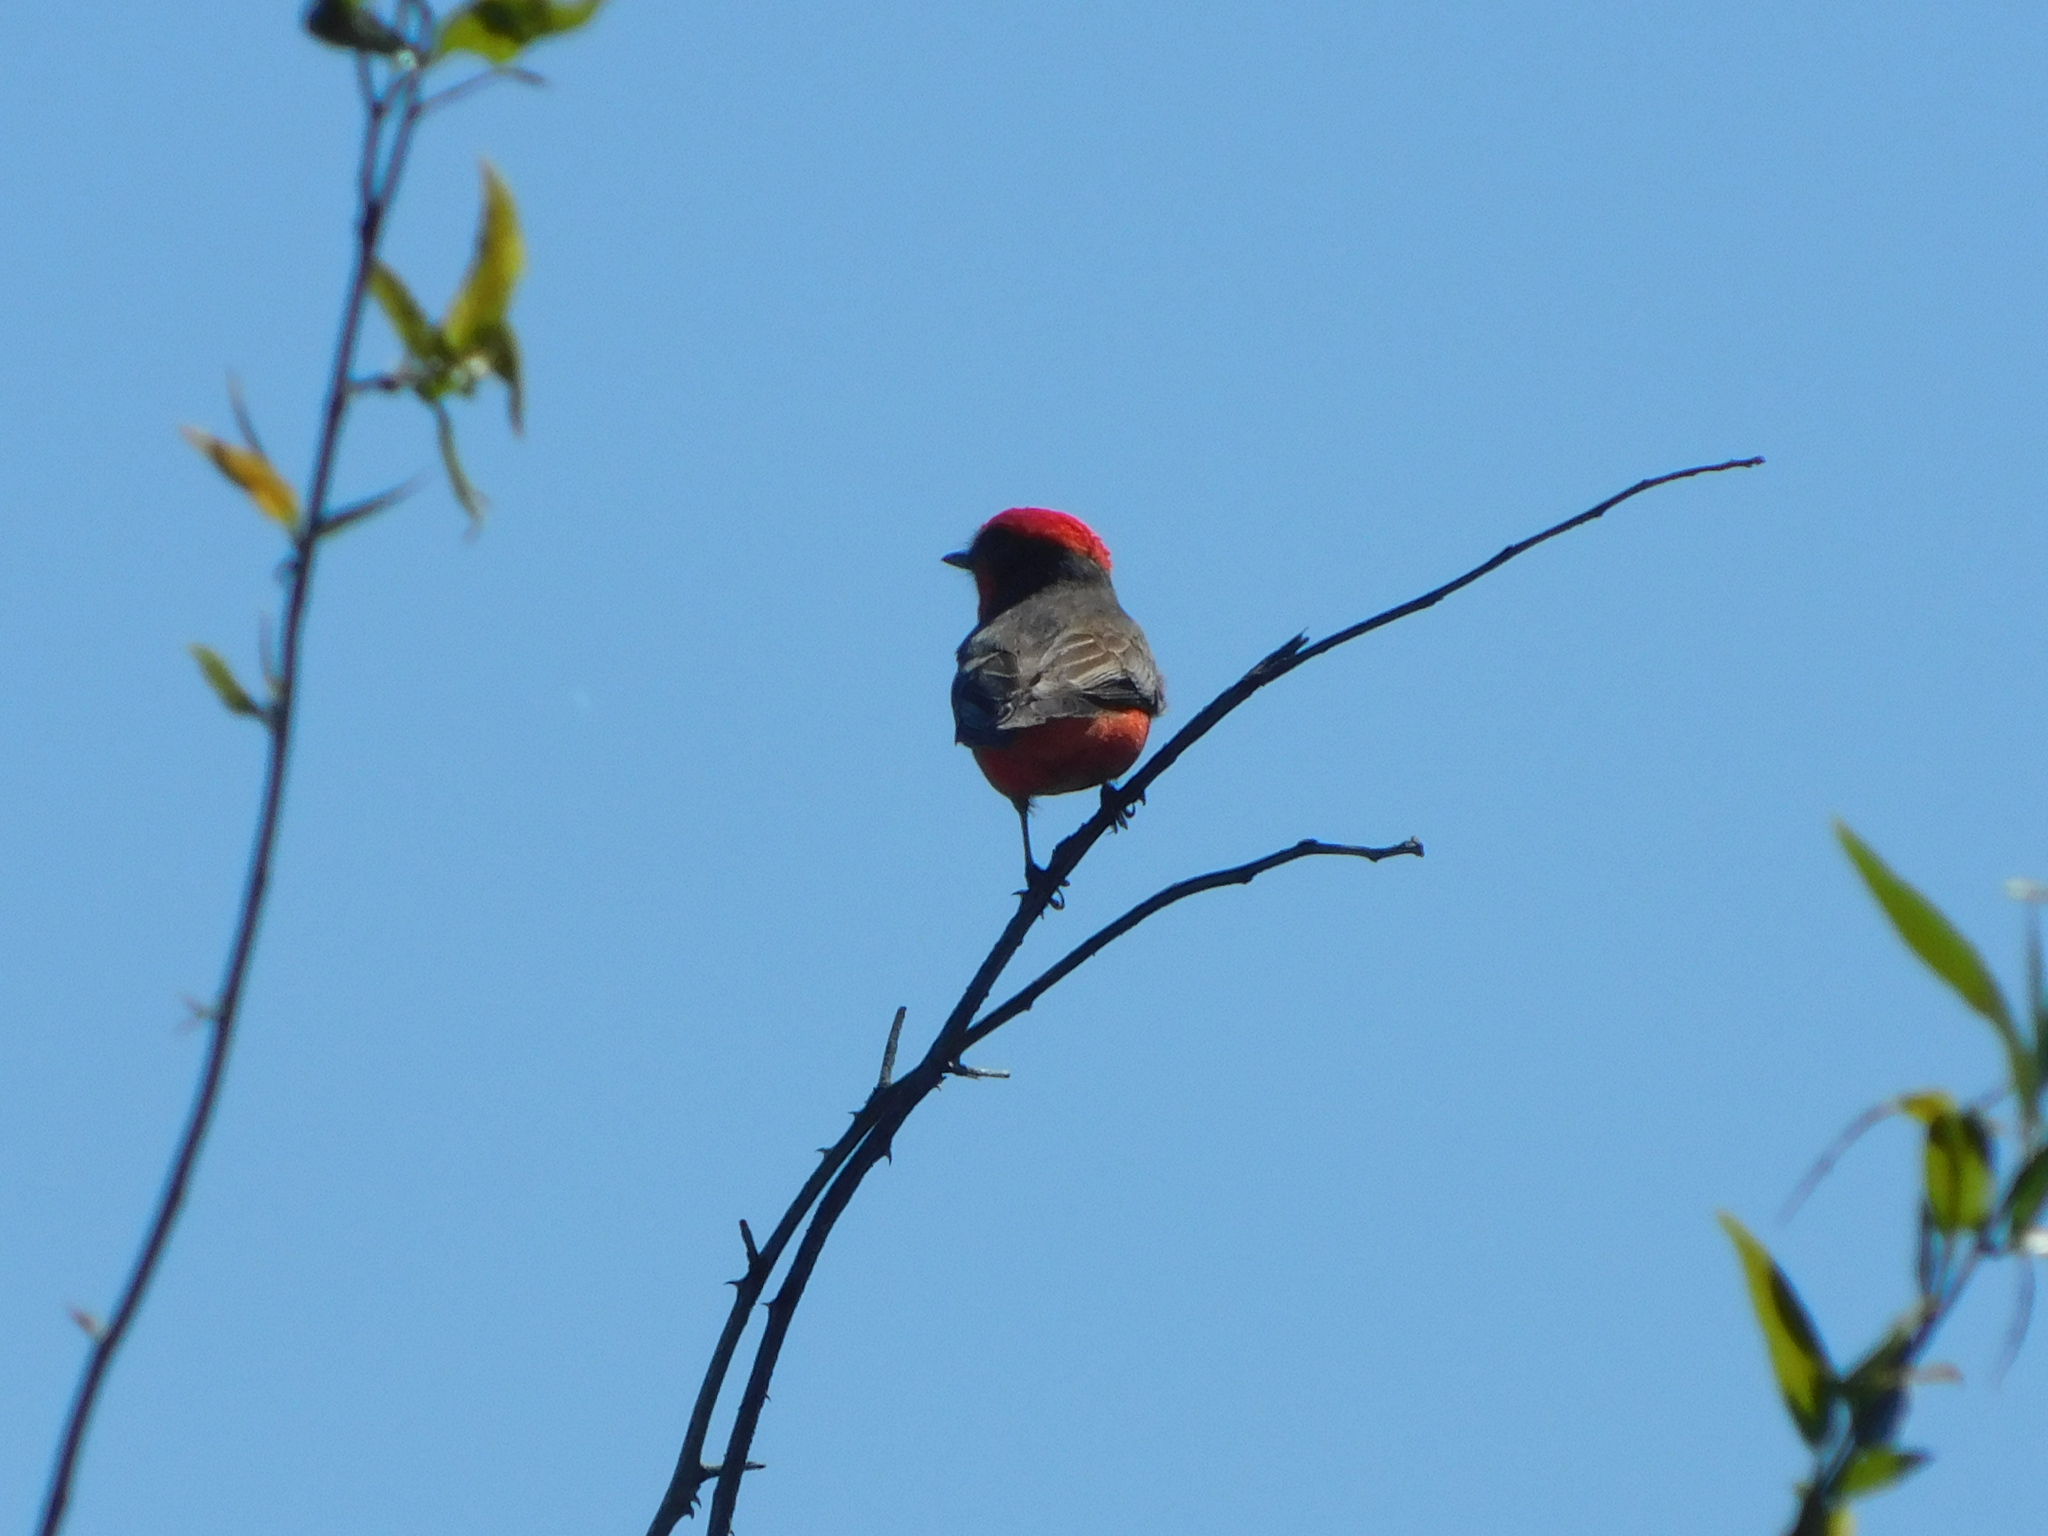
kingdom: Animalia
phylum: Chordata
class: Aves
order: Passeriformes
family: Tyrannidae
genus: Pyrocephalus
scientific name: Pyrocephalus rubinus
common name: Vermilion flycatcher
